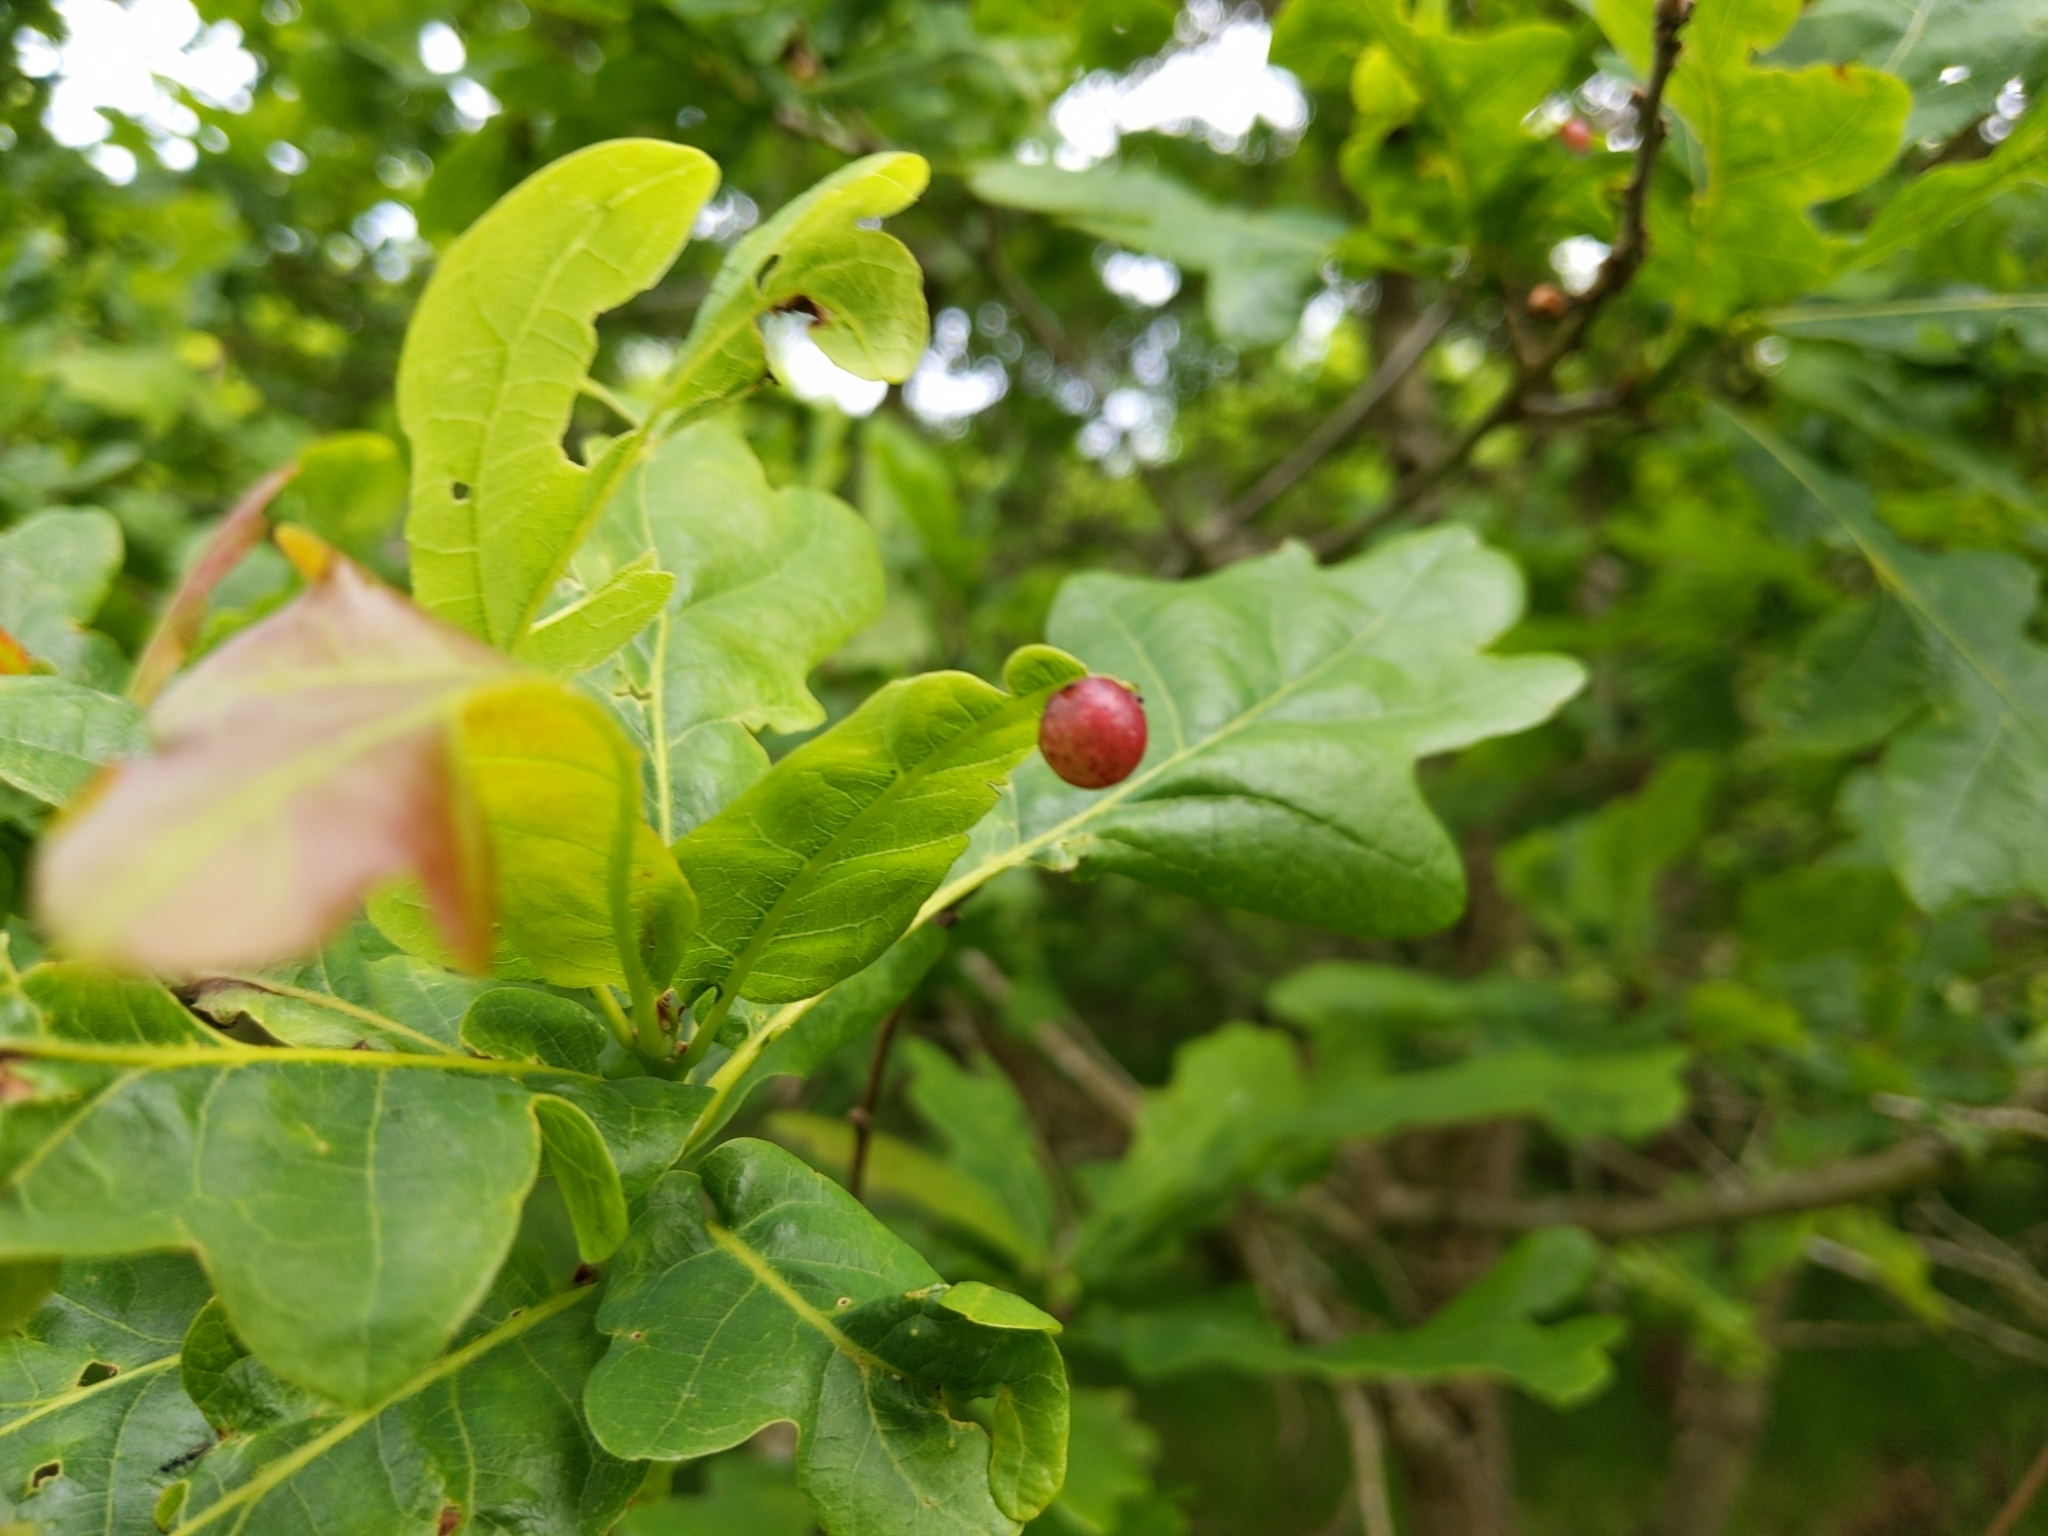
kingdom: Animalia
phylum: Arthropoda
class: Insecta
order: Hymenoptera
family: Cynipidae
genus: Neuroterus
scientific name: Neuroterus quercusbaccarum
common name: Common spangle gall
